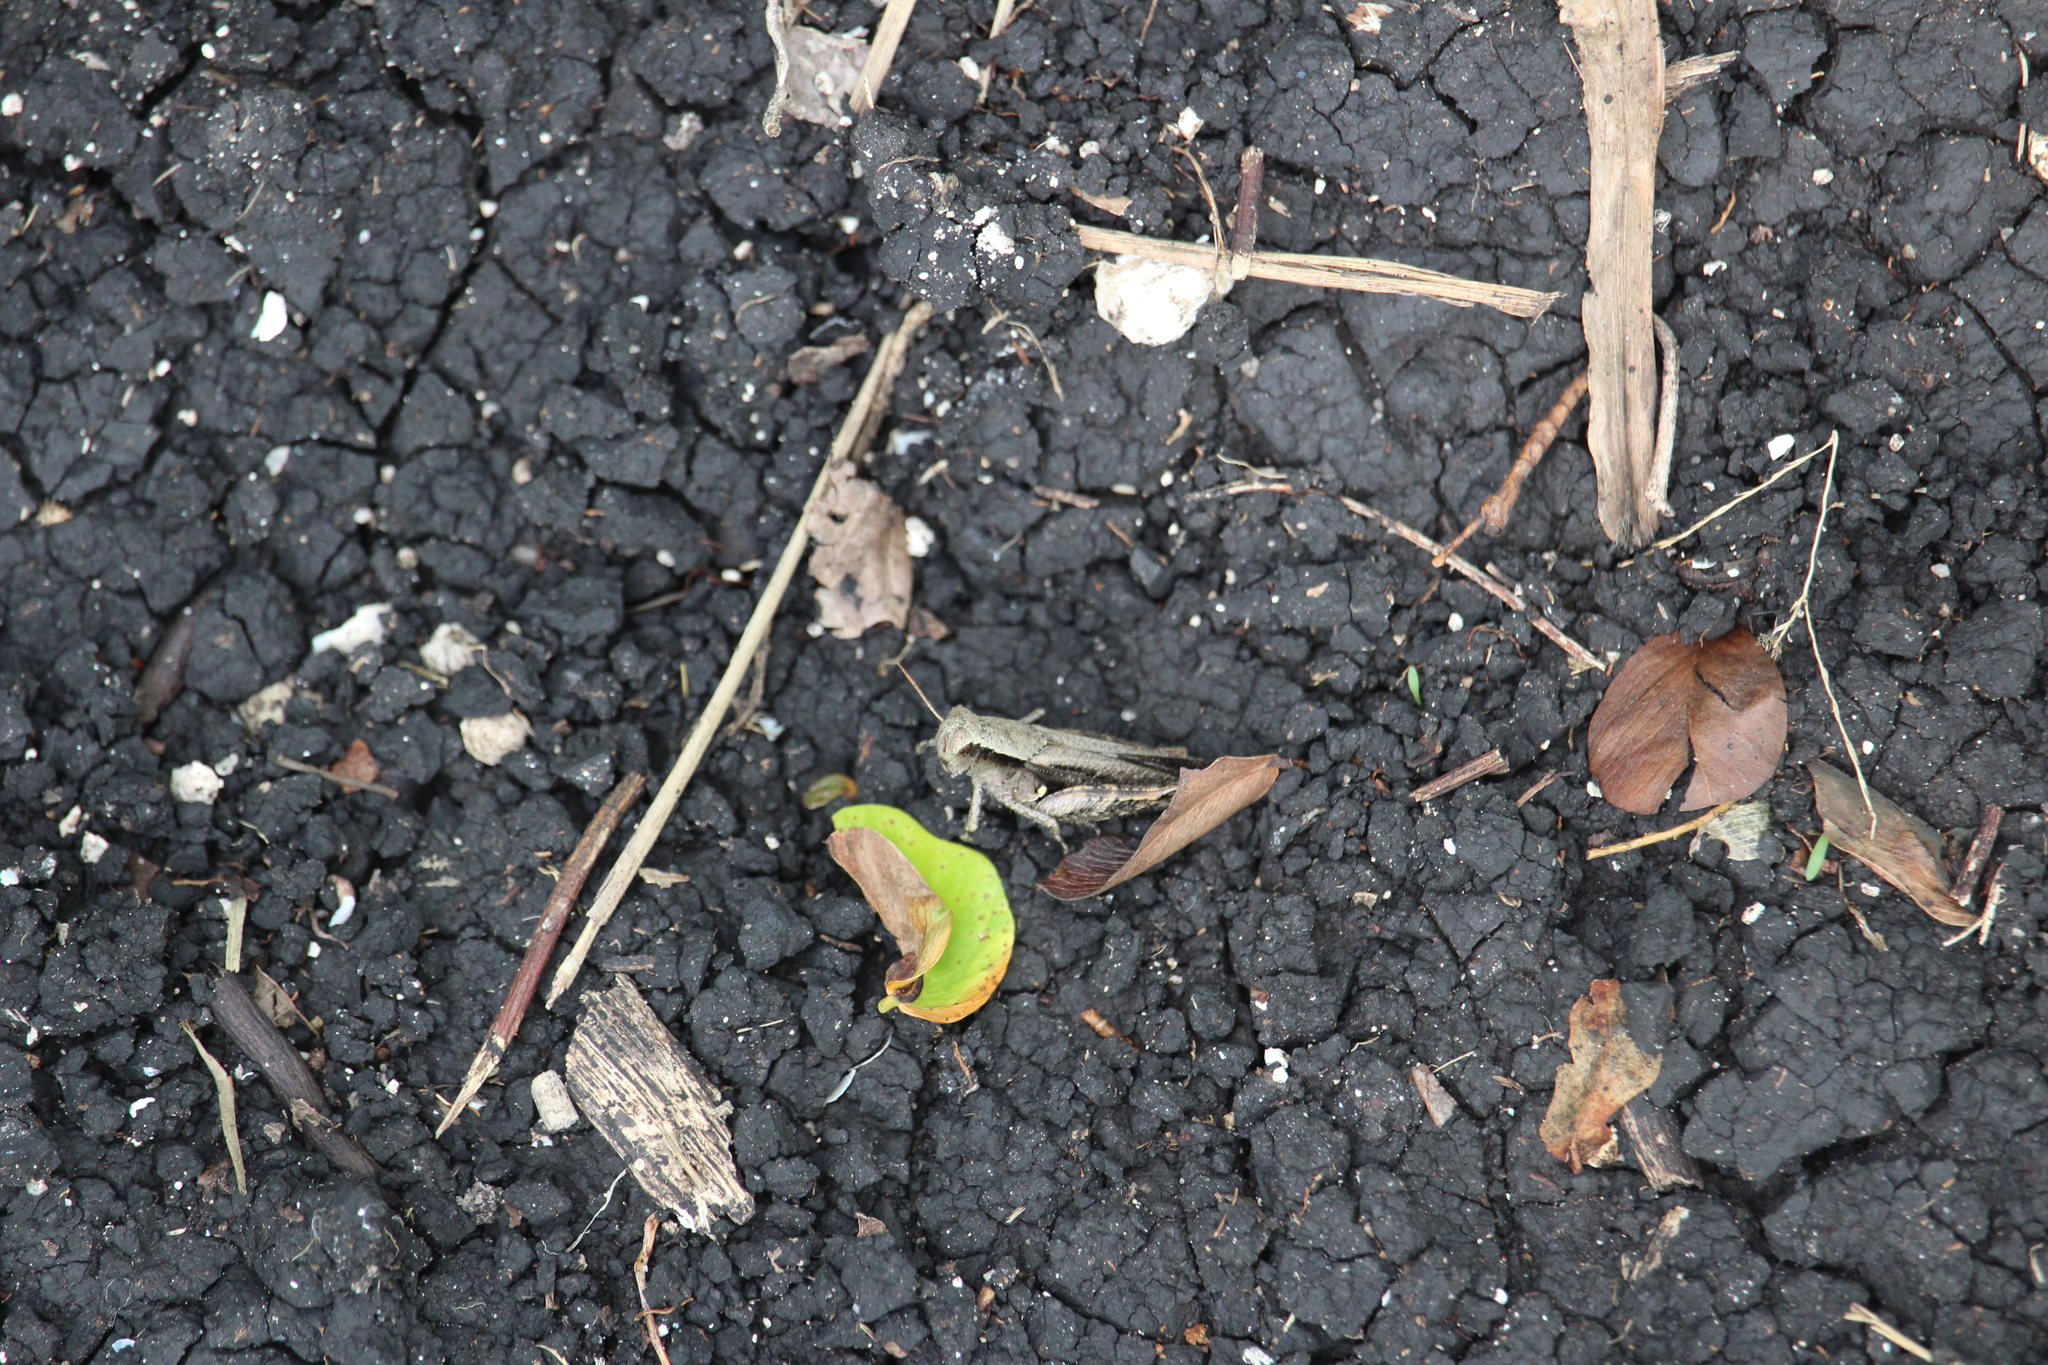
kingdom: Animalia
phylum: Arthropoda
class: Insecta
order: Orthoptera
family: Acrididae
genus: Aidemona
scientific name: Aidemona azteca
